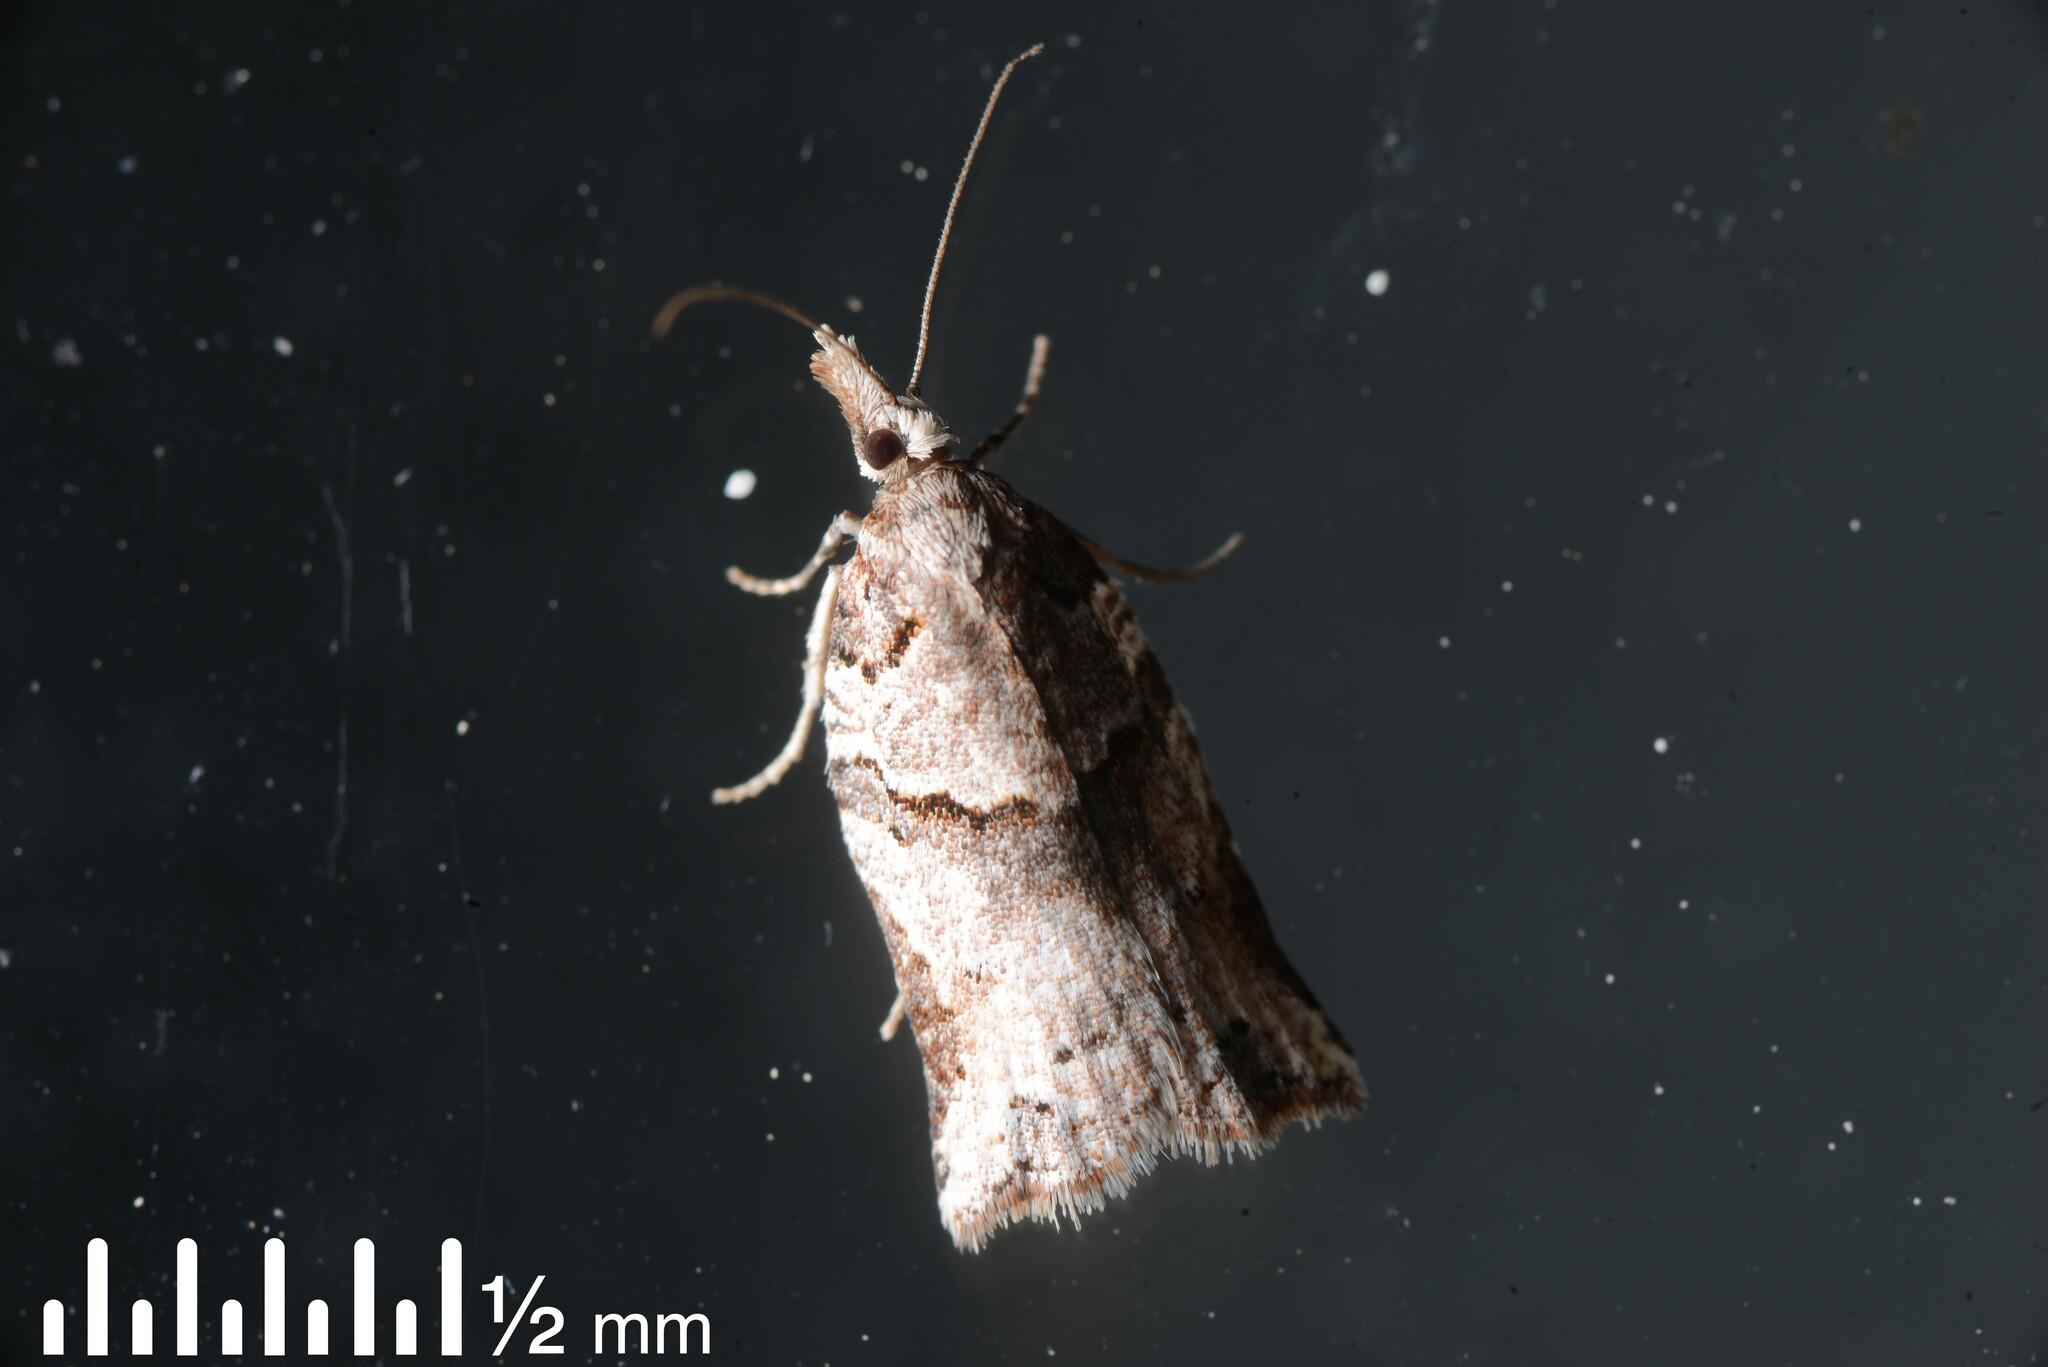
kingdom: Animalia
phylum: Arthropoda
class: Insecta
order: Lepidoptera
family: Tortricidae
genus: Harmologa
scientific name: Harmologa amplexana
